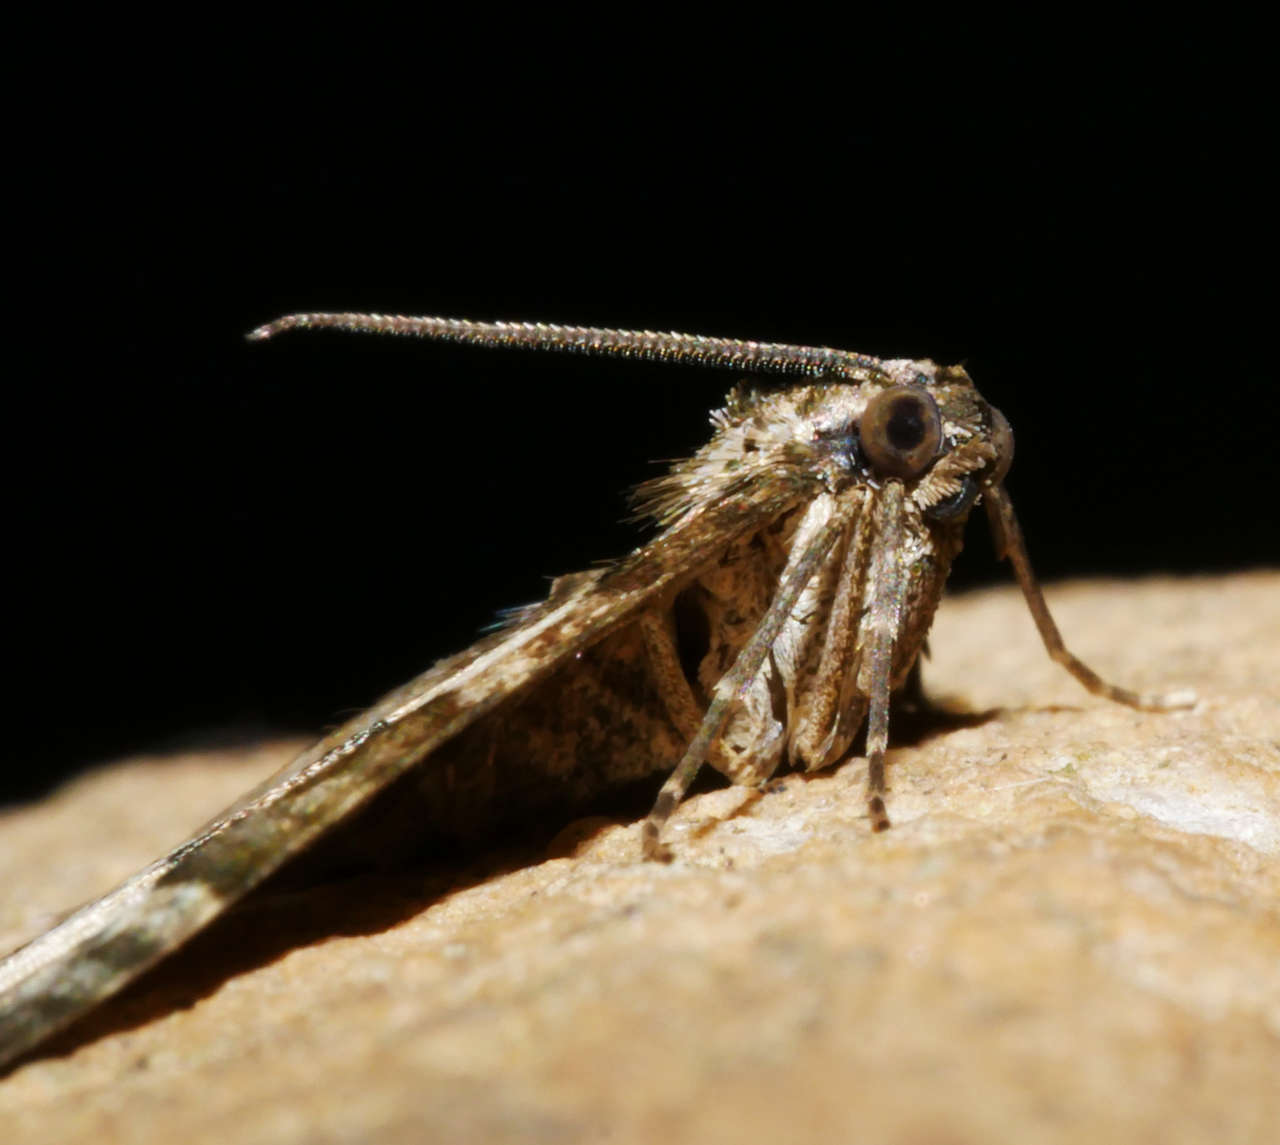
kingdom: Animalia
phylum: Arthropoda
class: Insecta
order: Lepidoptera
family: Geometridae
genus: Chrysolarentia
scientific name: Chrysolarentia gypsomela
